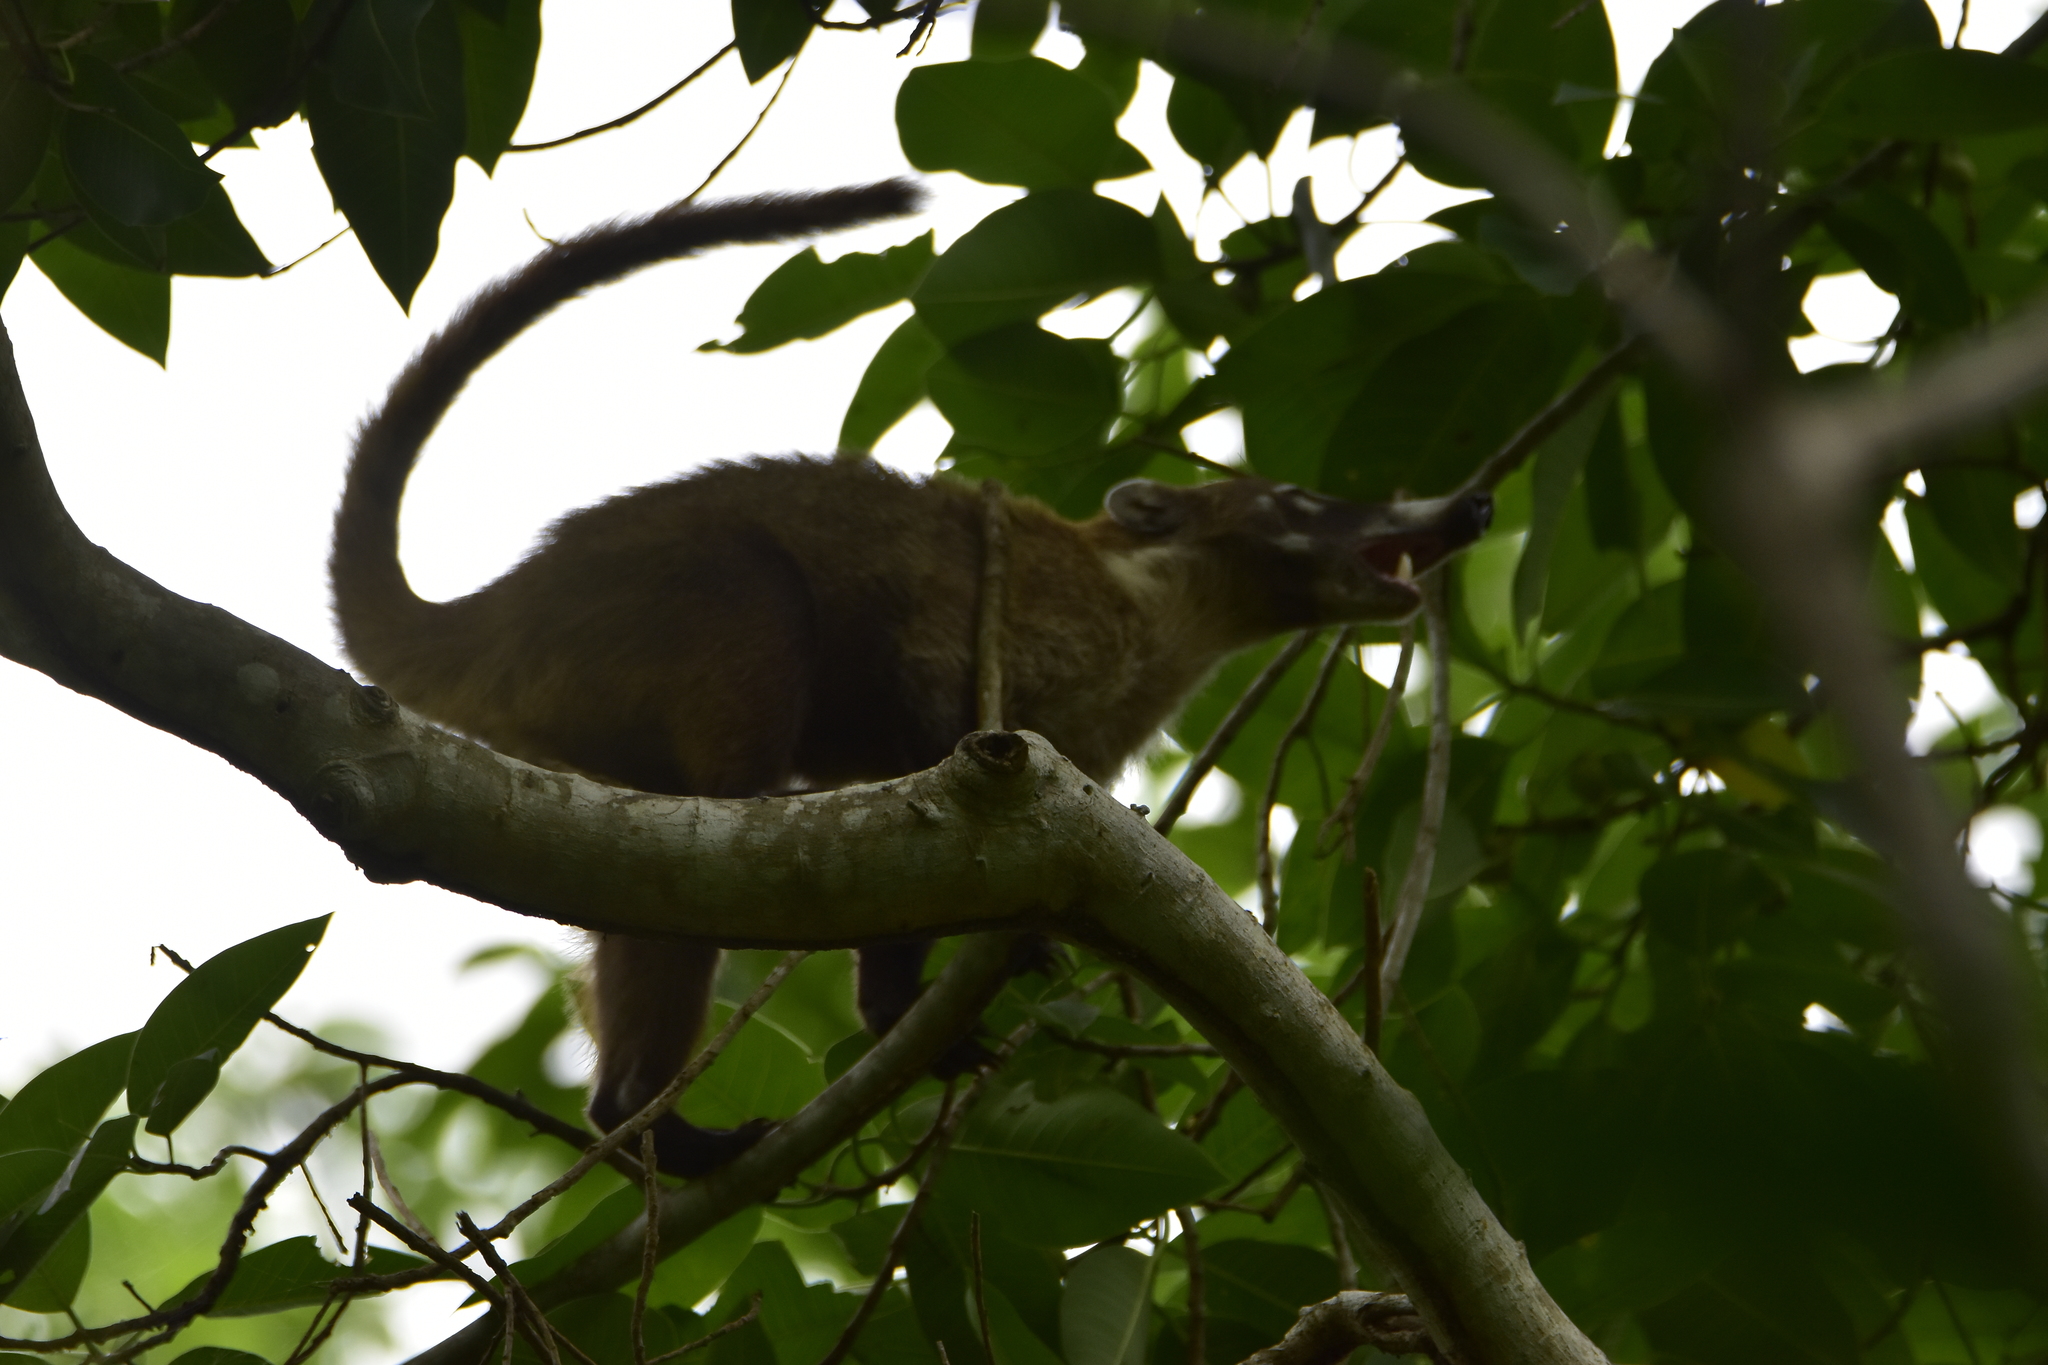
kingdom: Animalia
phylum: Chordata
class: Mammalia
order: Carnivora
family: Procyonidae
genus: Nasua
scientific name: Nasua narica
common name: White-nosed coati
